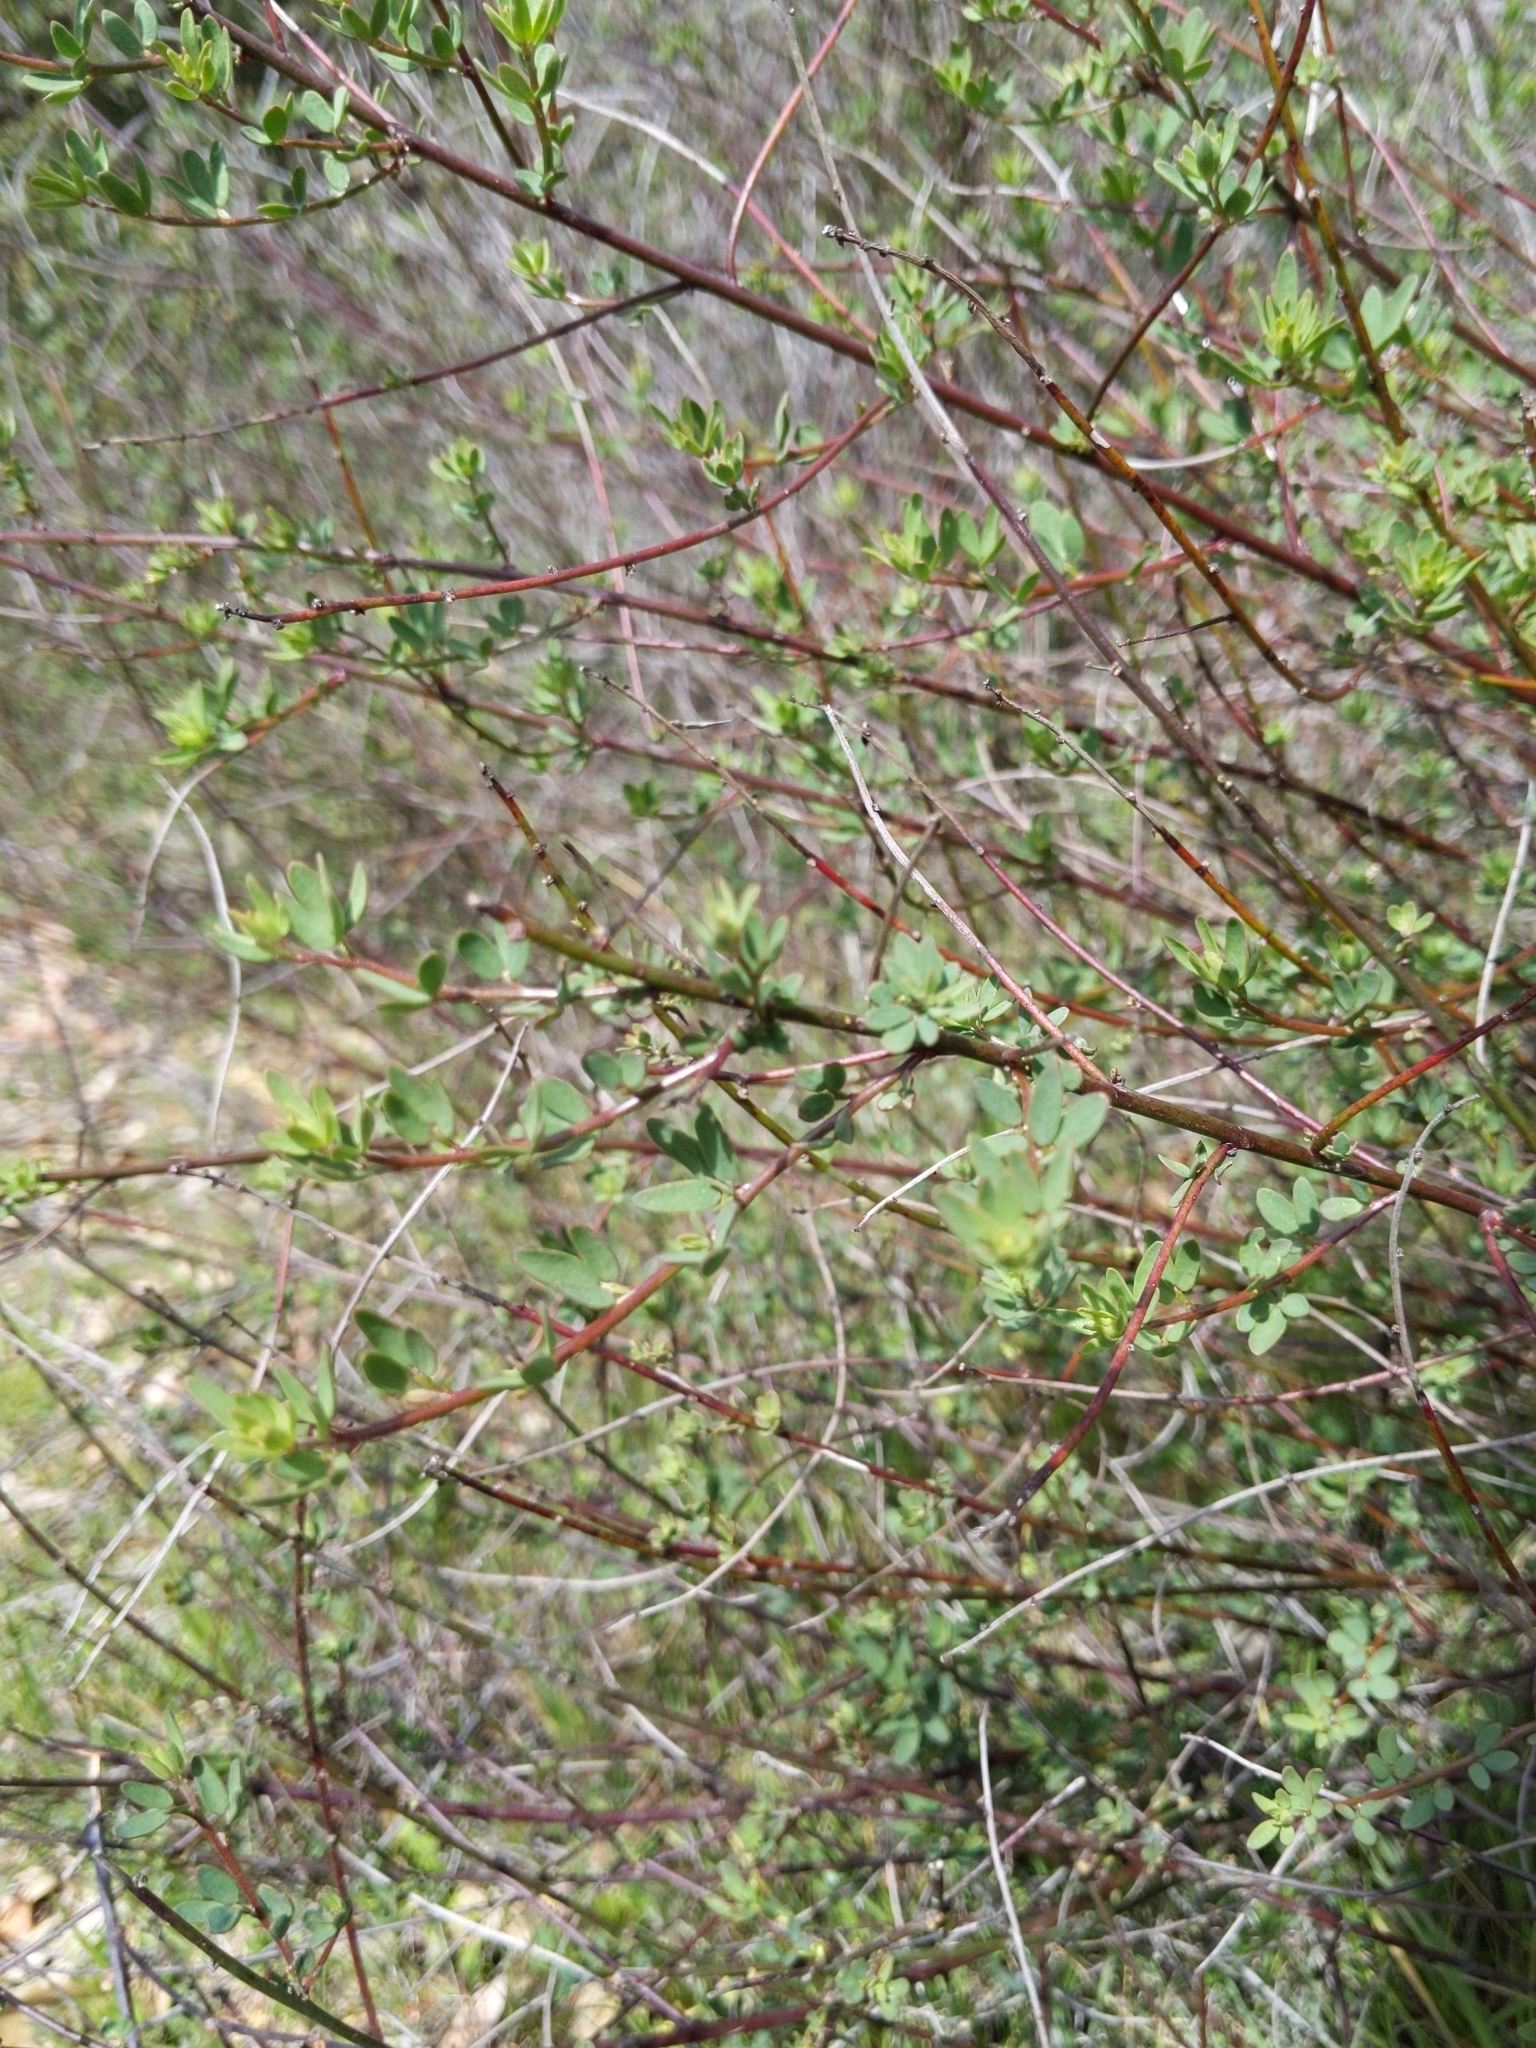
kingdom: Plantae
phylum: Tracheophyta
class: Magnoliopsida
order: Fabales
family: Fabaceae
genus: Acmispon
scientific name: Acmispon glaber
